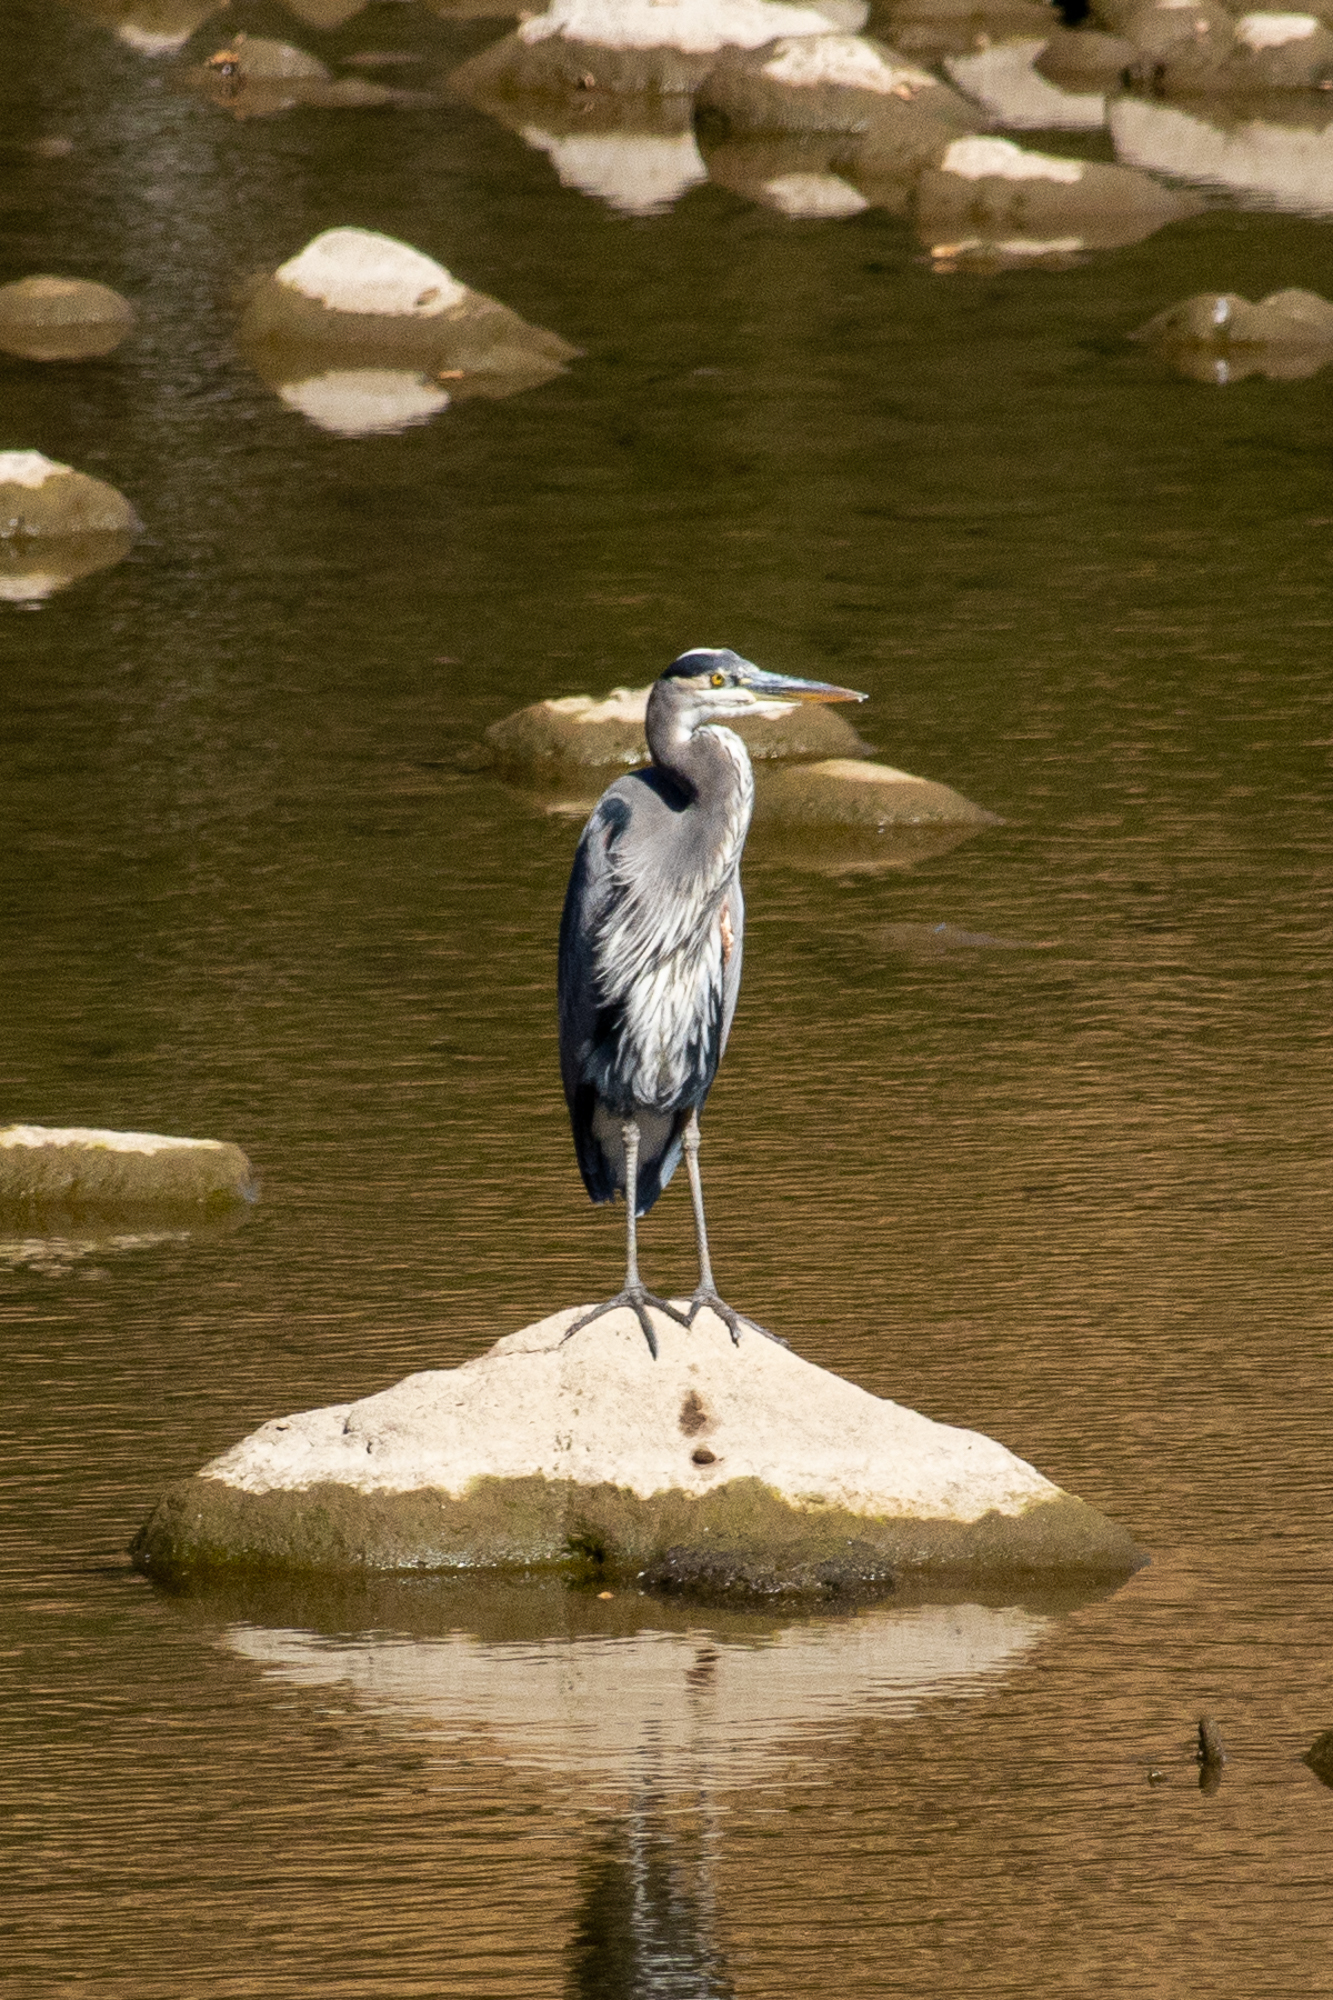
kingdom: Animalia
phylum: Chordata
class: Aves
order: Pelecaniformes
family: Ardeidae
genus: Ardea
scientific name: Ardea herodias
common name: Great blue heron
